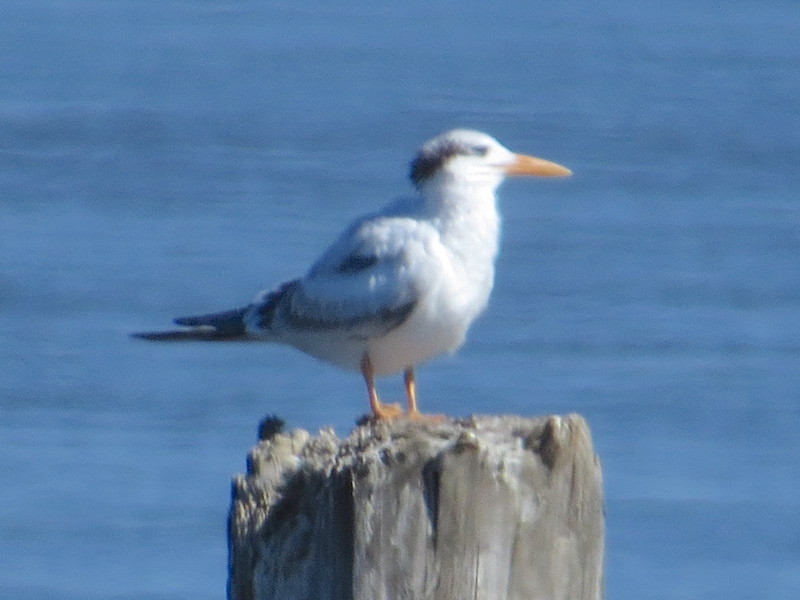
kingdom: Animalia
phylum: Chordata
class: Aves
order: Charadriiformes
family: Laridae
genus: Thalasseus
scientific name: Thalasseus maximus
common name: Royal tern
